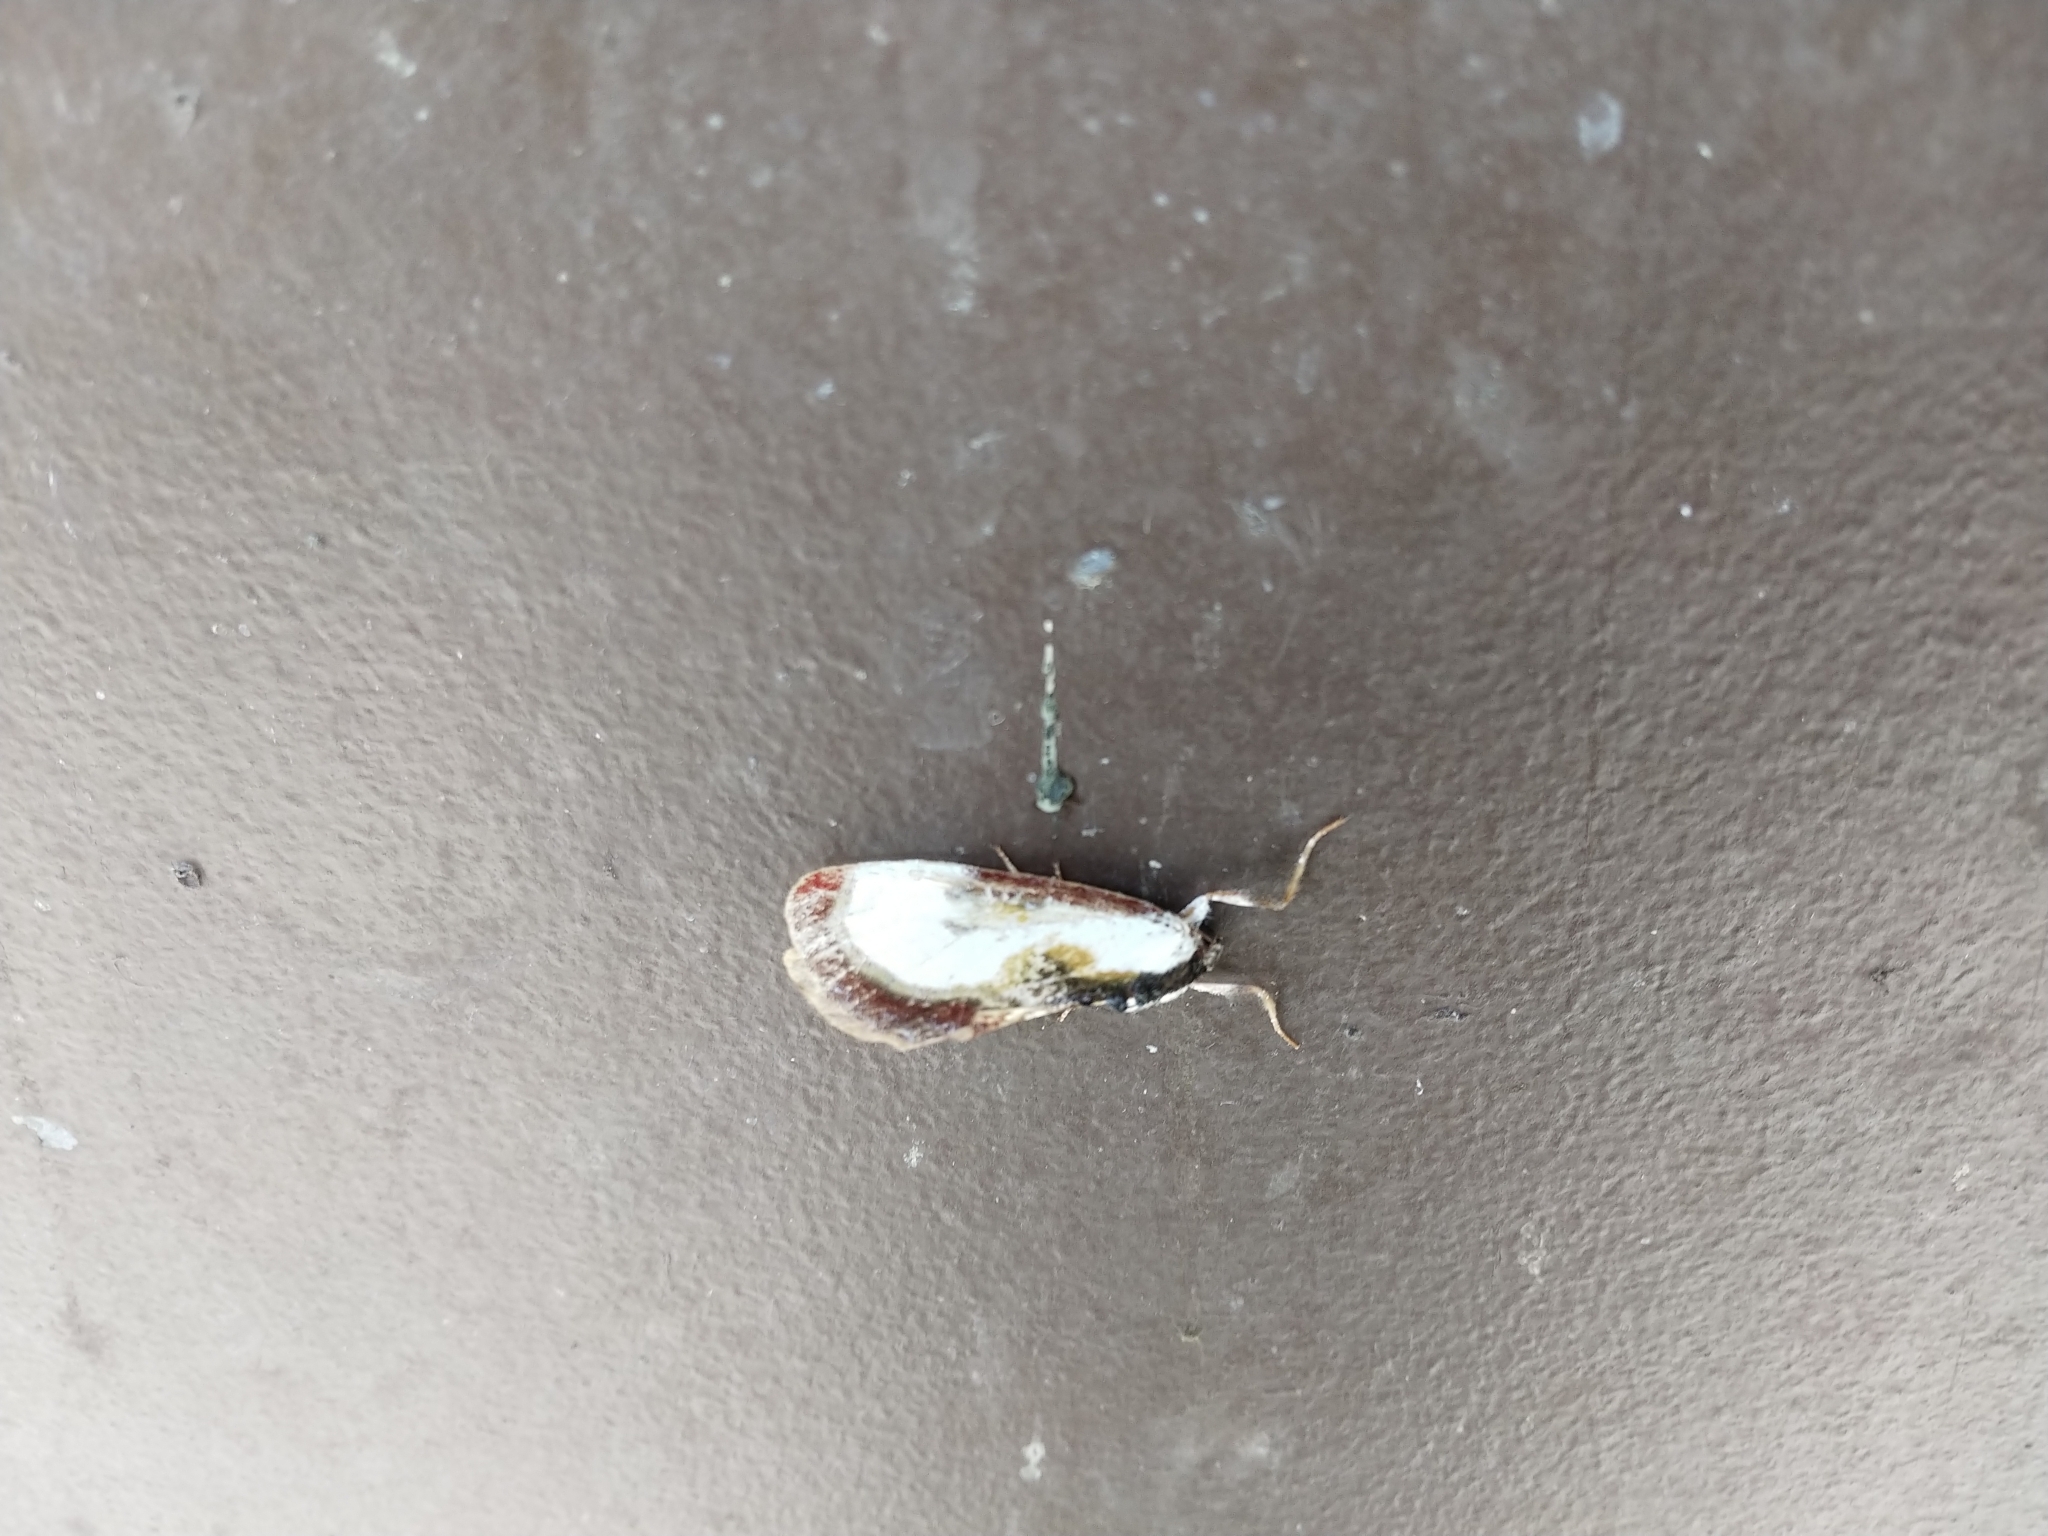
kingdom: Animalia
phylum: Arthropoda
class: Insecta
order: Lepidoptera
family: Noctuidae
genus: Eudryas
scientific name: Eudryas grata
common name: Beautiful wood-nymph
